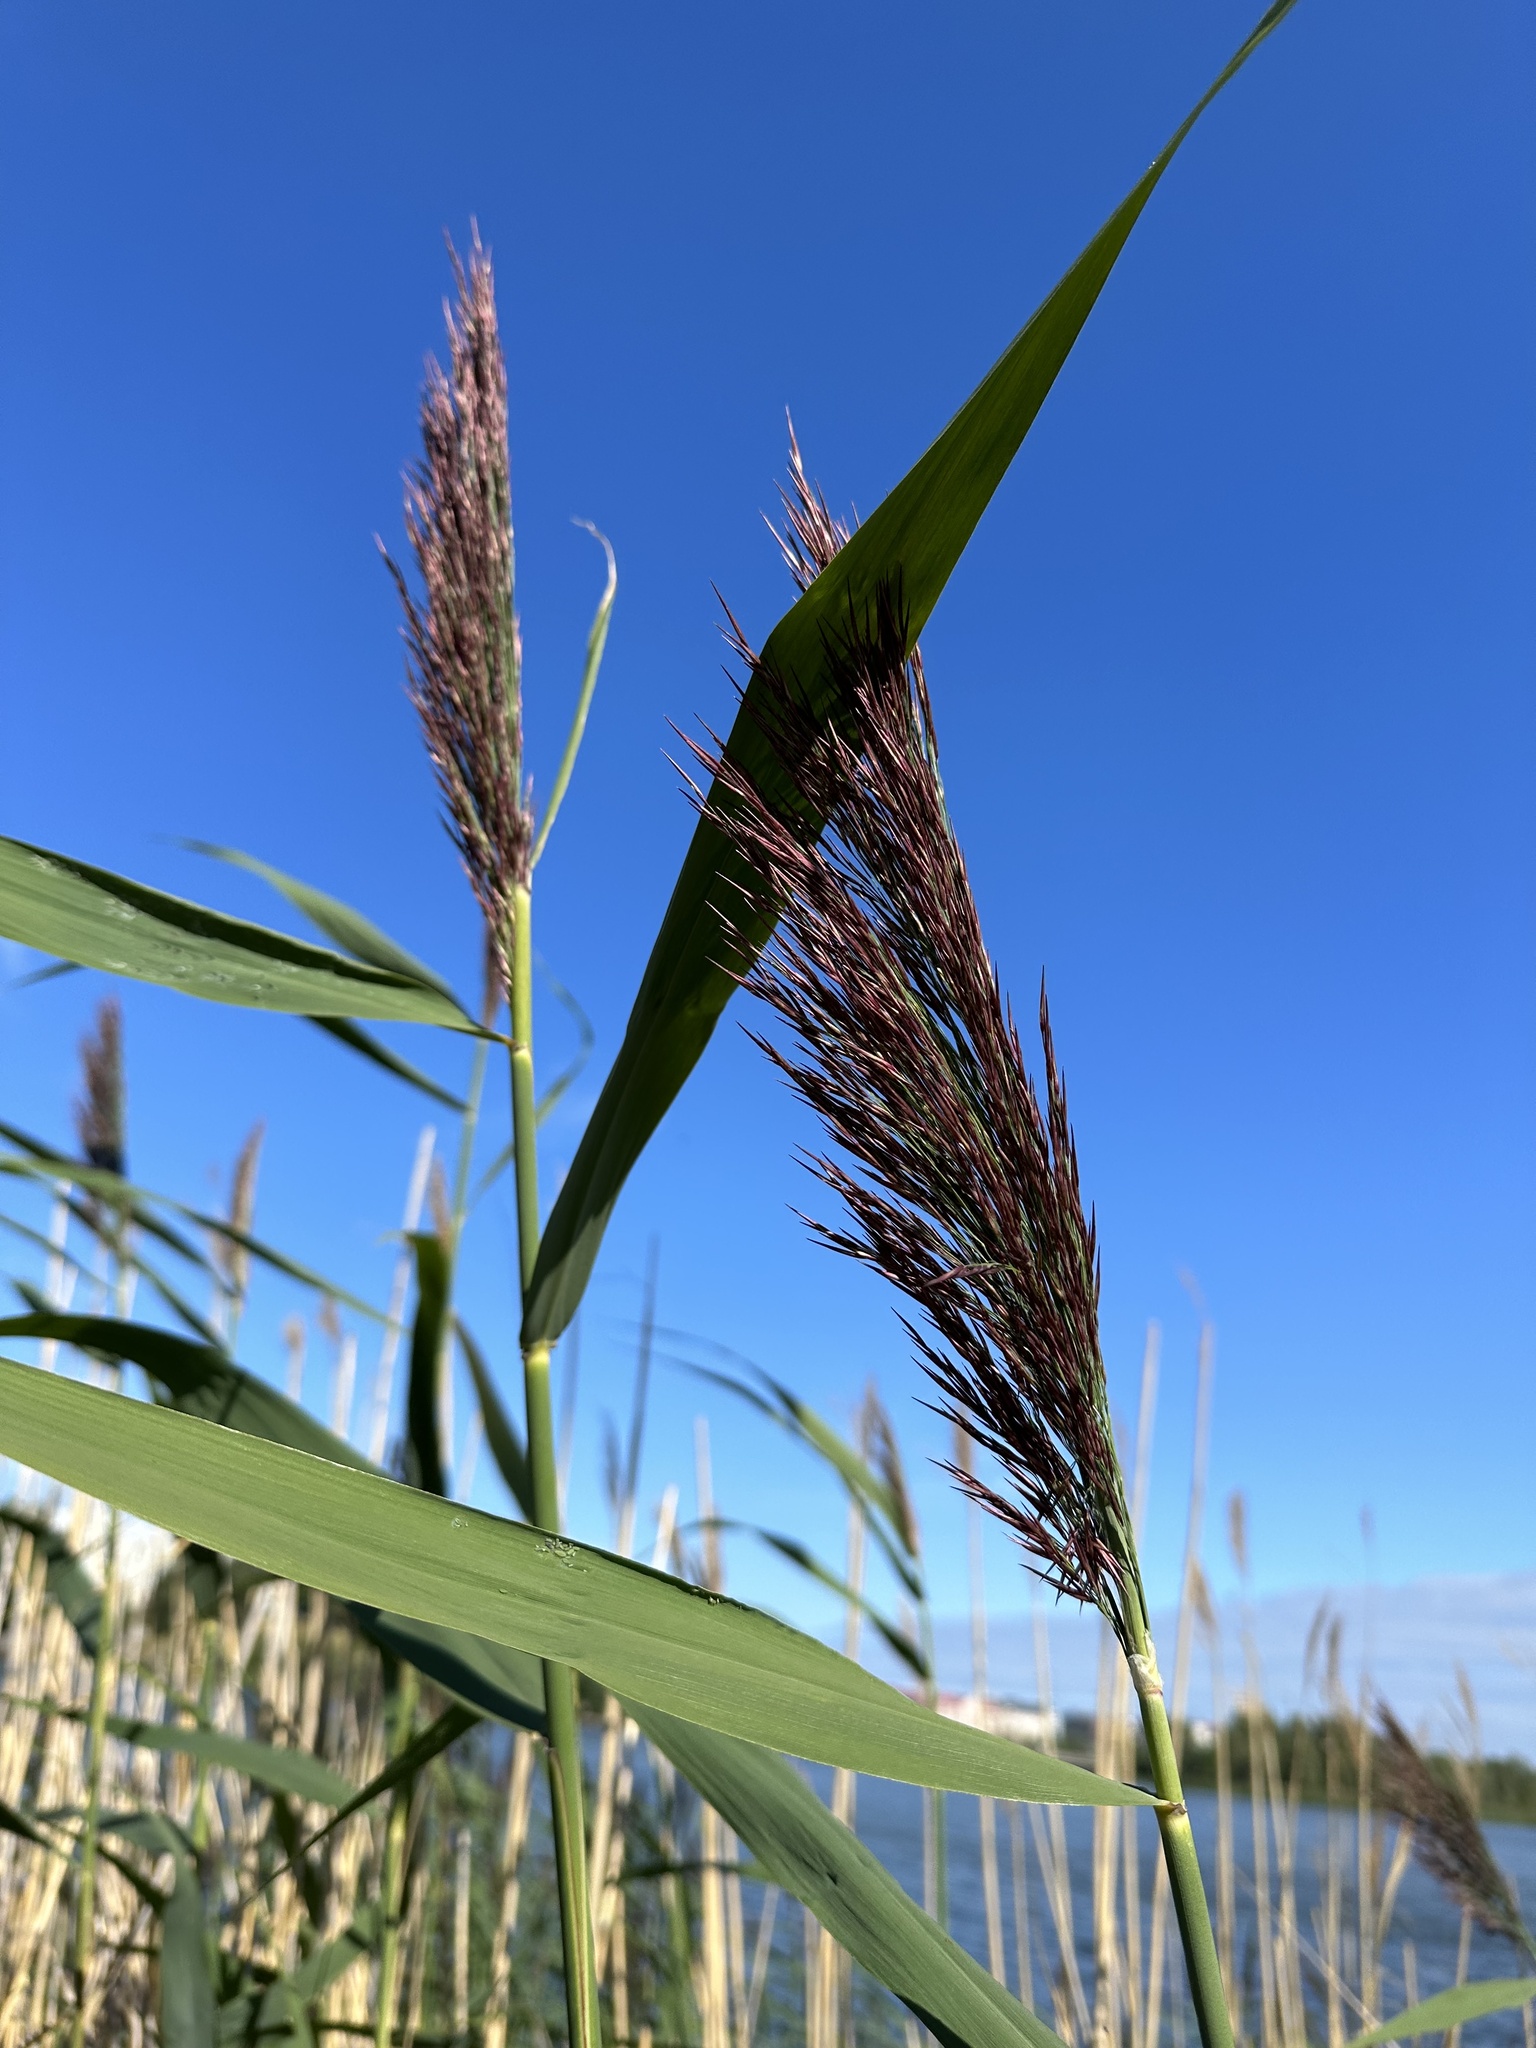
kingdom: Plantae
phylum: Tracheophyta
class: Liliopsida
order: Poales
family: Poaceae
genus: Phragmites
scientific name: Phragmites australis
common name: Common reed
